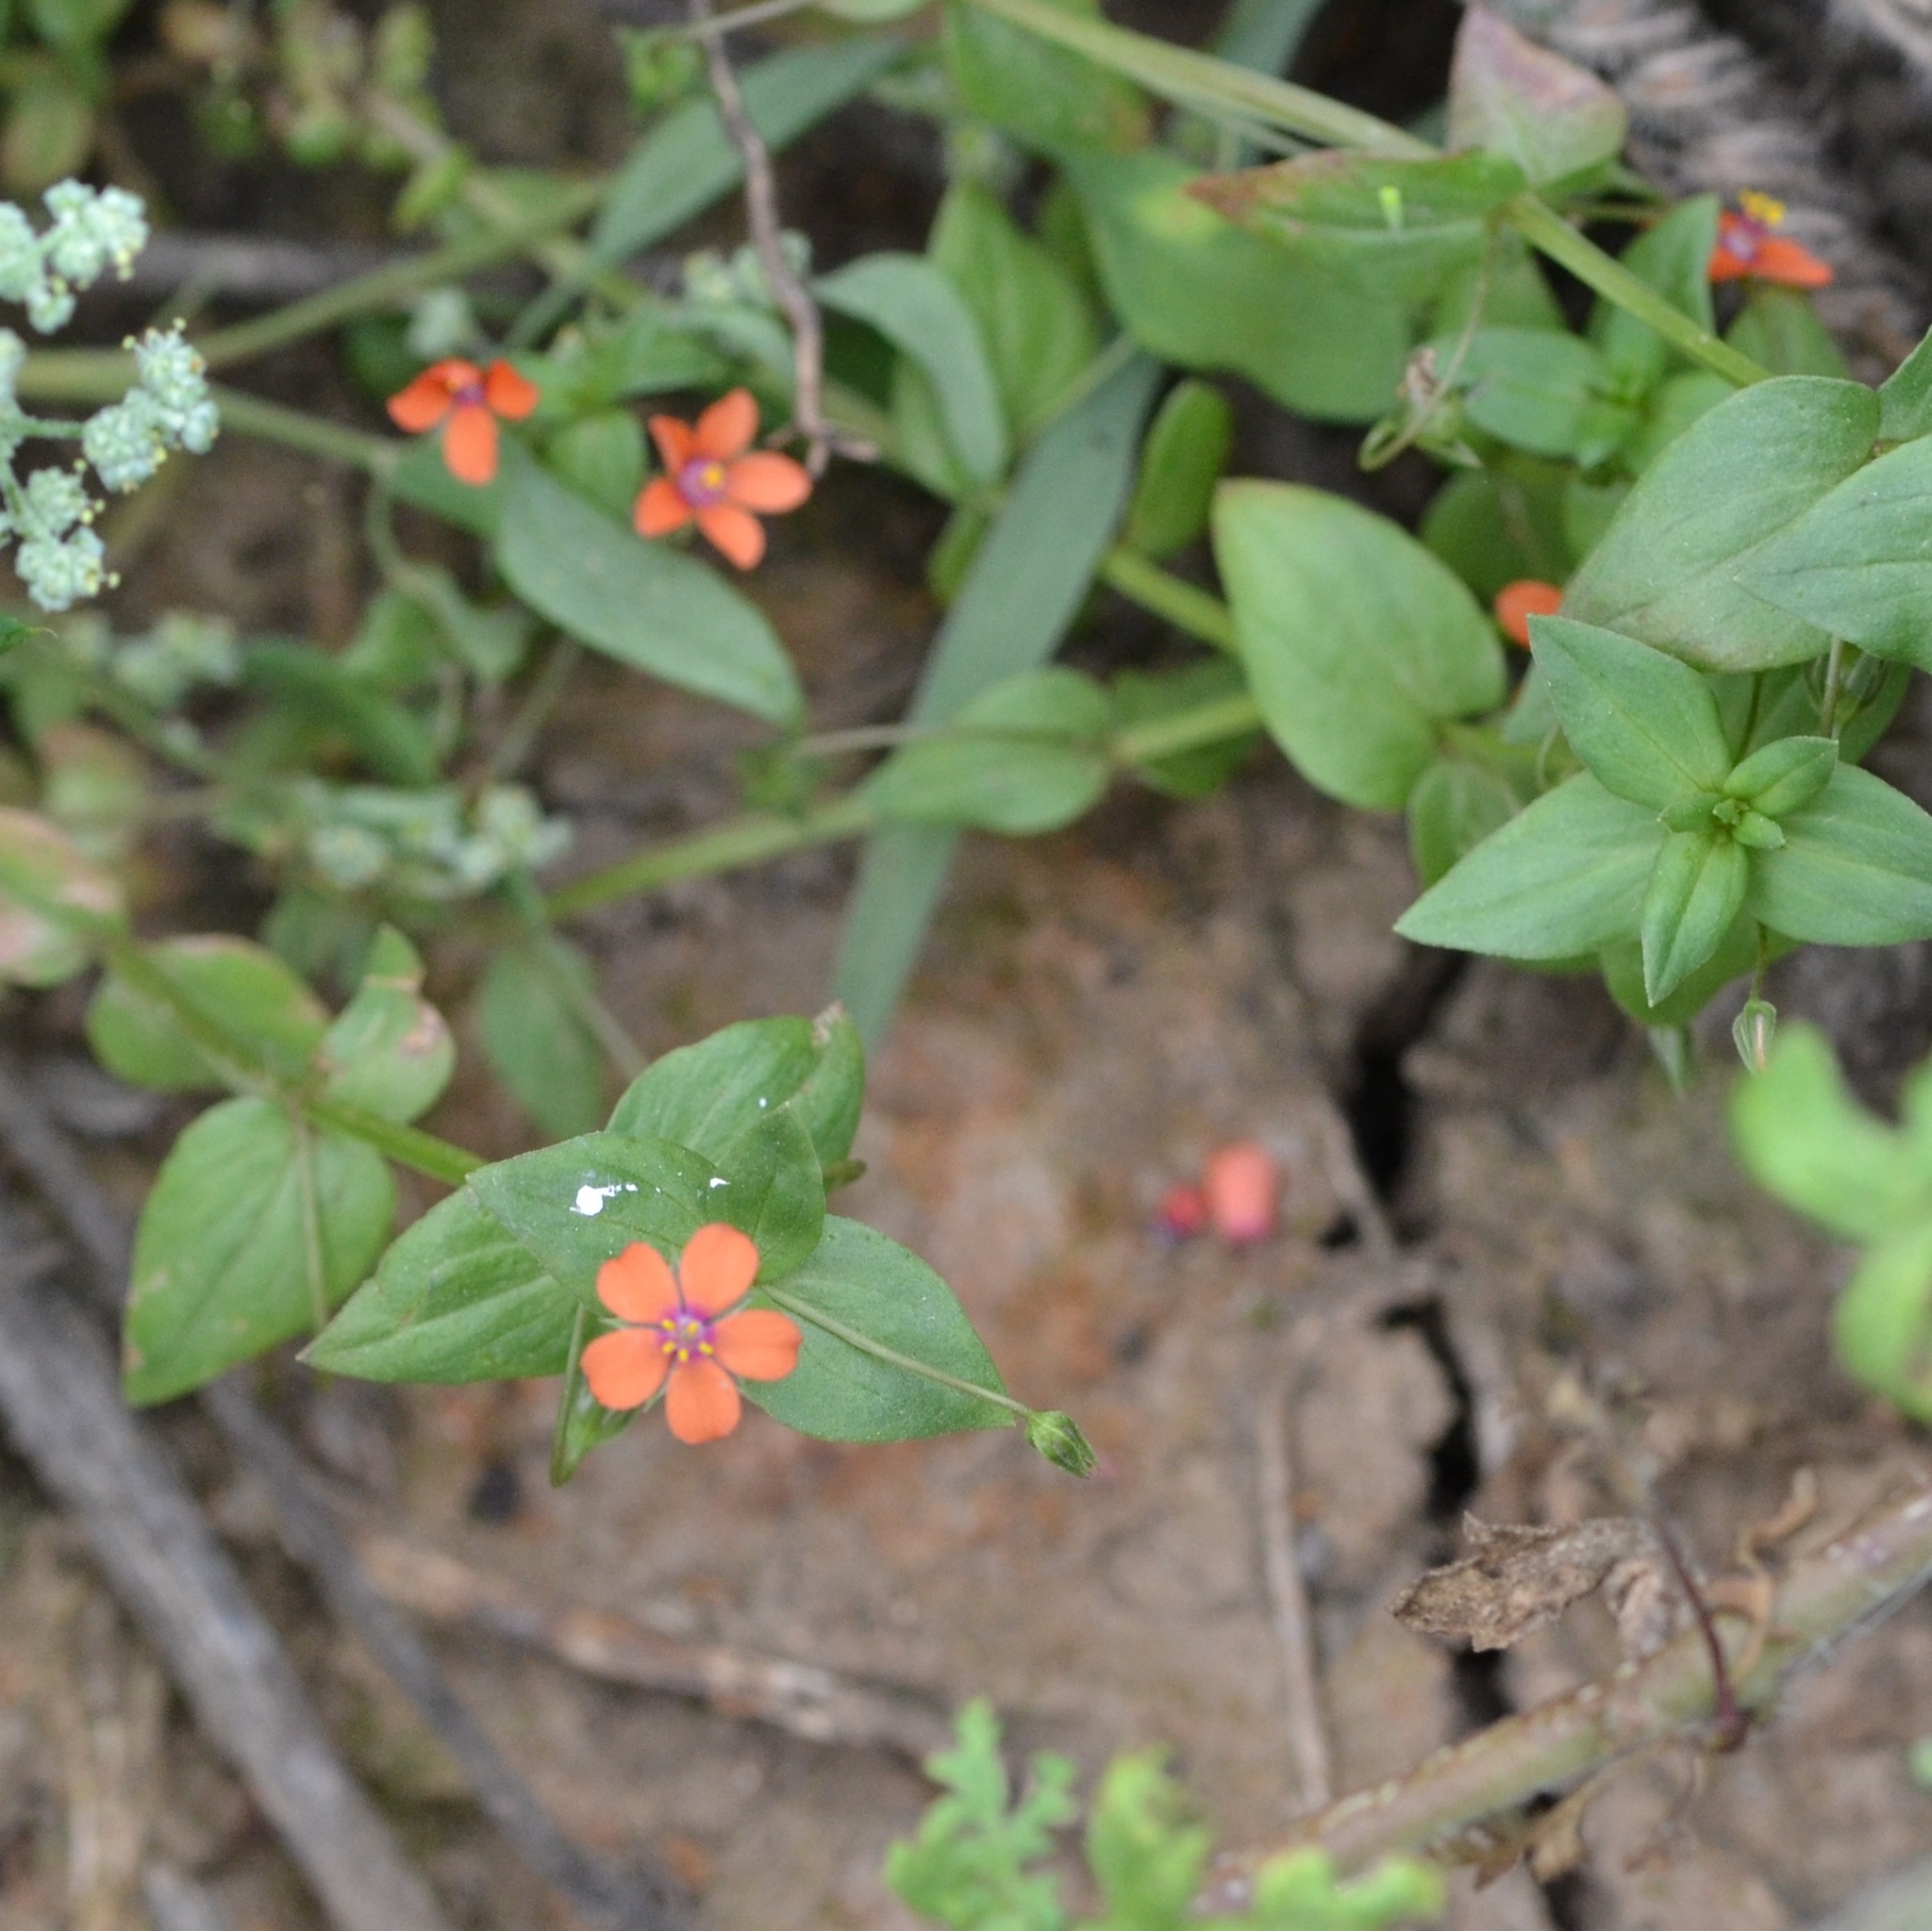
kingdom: Plantae
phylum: Tracheophyta
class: Magnoliopsida
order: Ericales
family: Primulaceae
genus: Lysimachia
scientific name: Lysimachia arvensis
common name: Scarlet pimpernel
